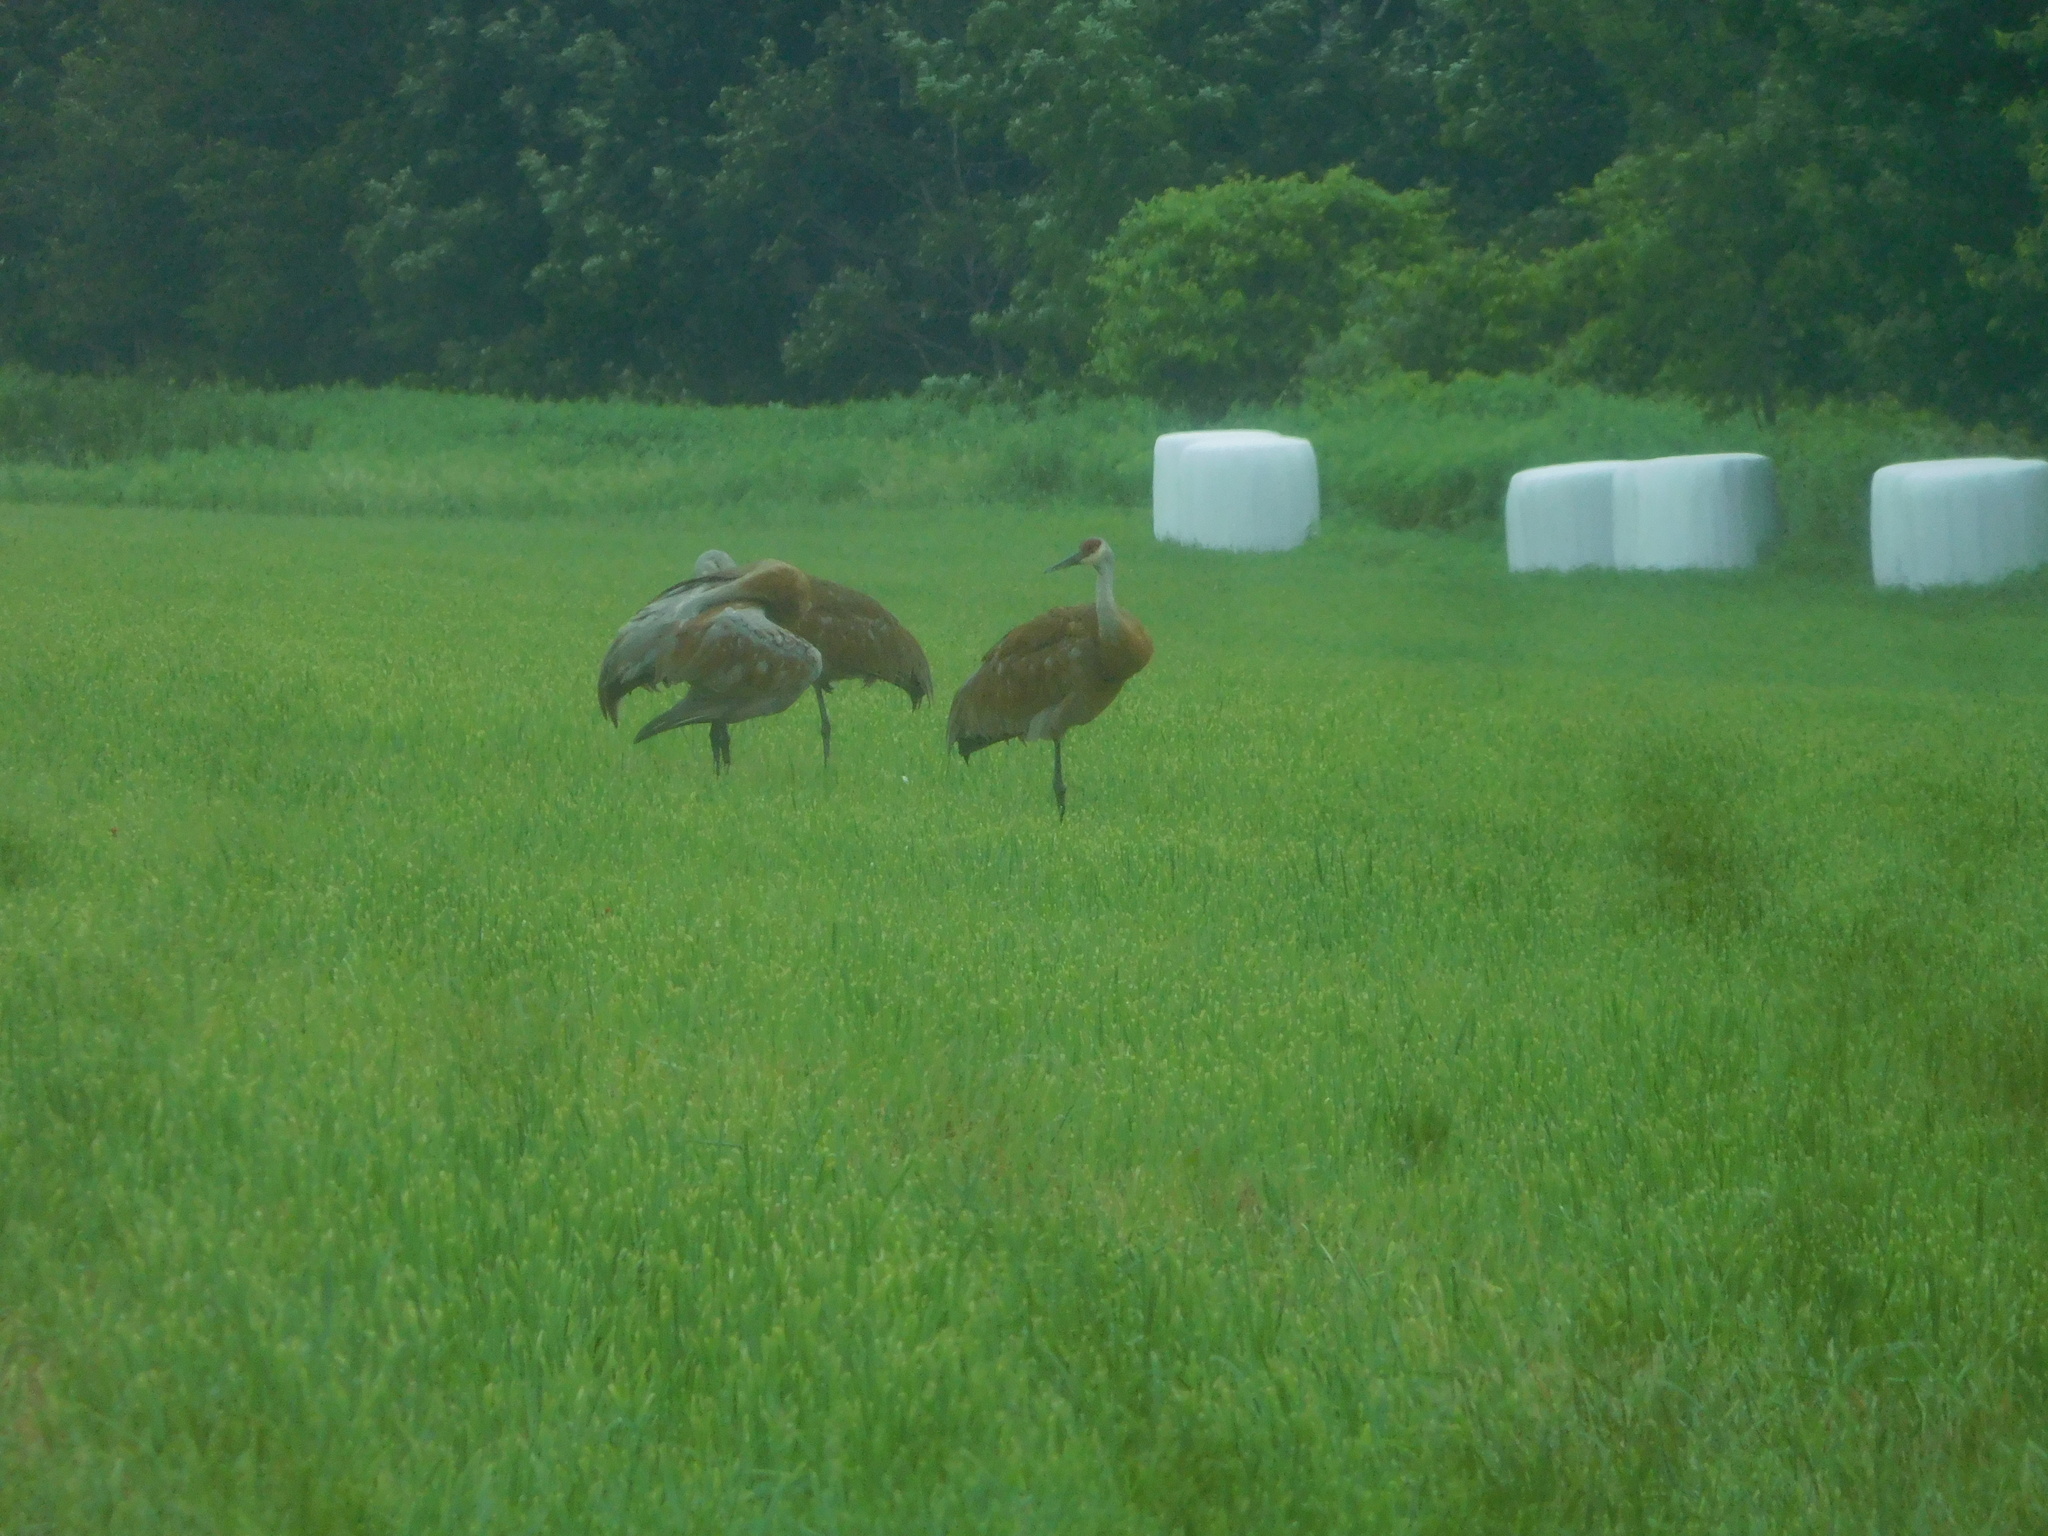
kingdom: Animalia
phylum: Chordata
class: Aves
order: Gruiformes
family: Gruidae
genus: Grus
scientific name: Grus canadensis
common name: Sandhill crane
